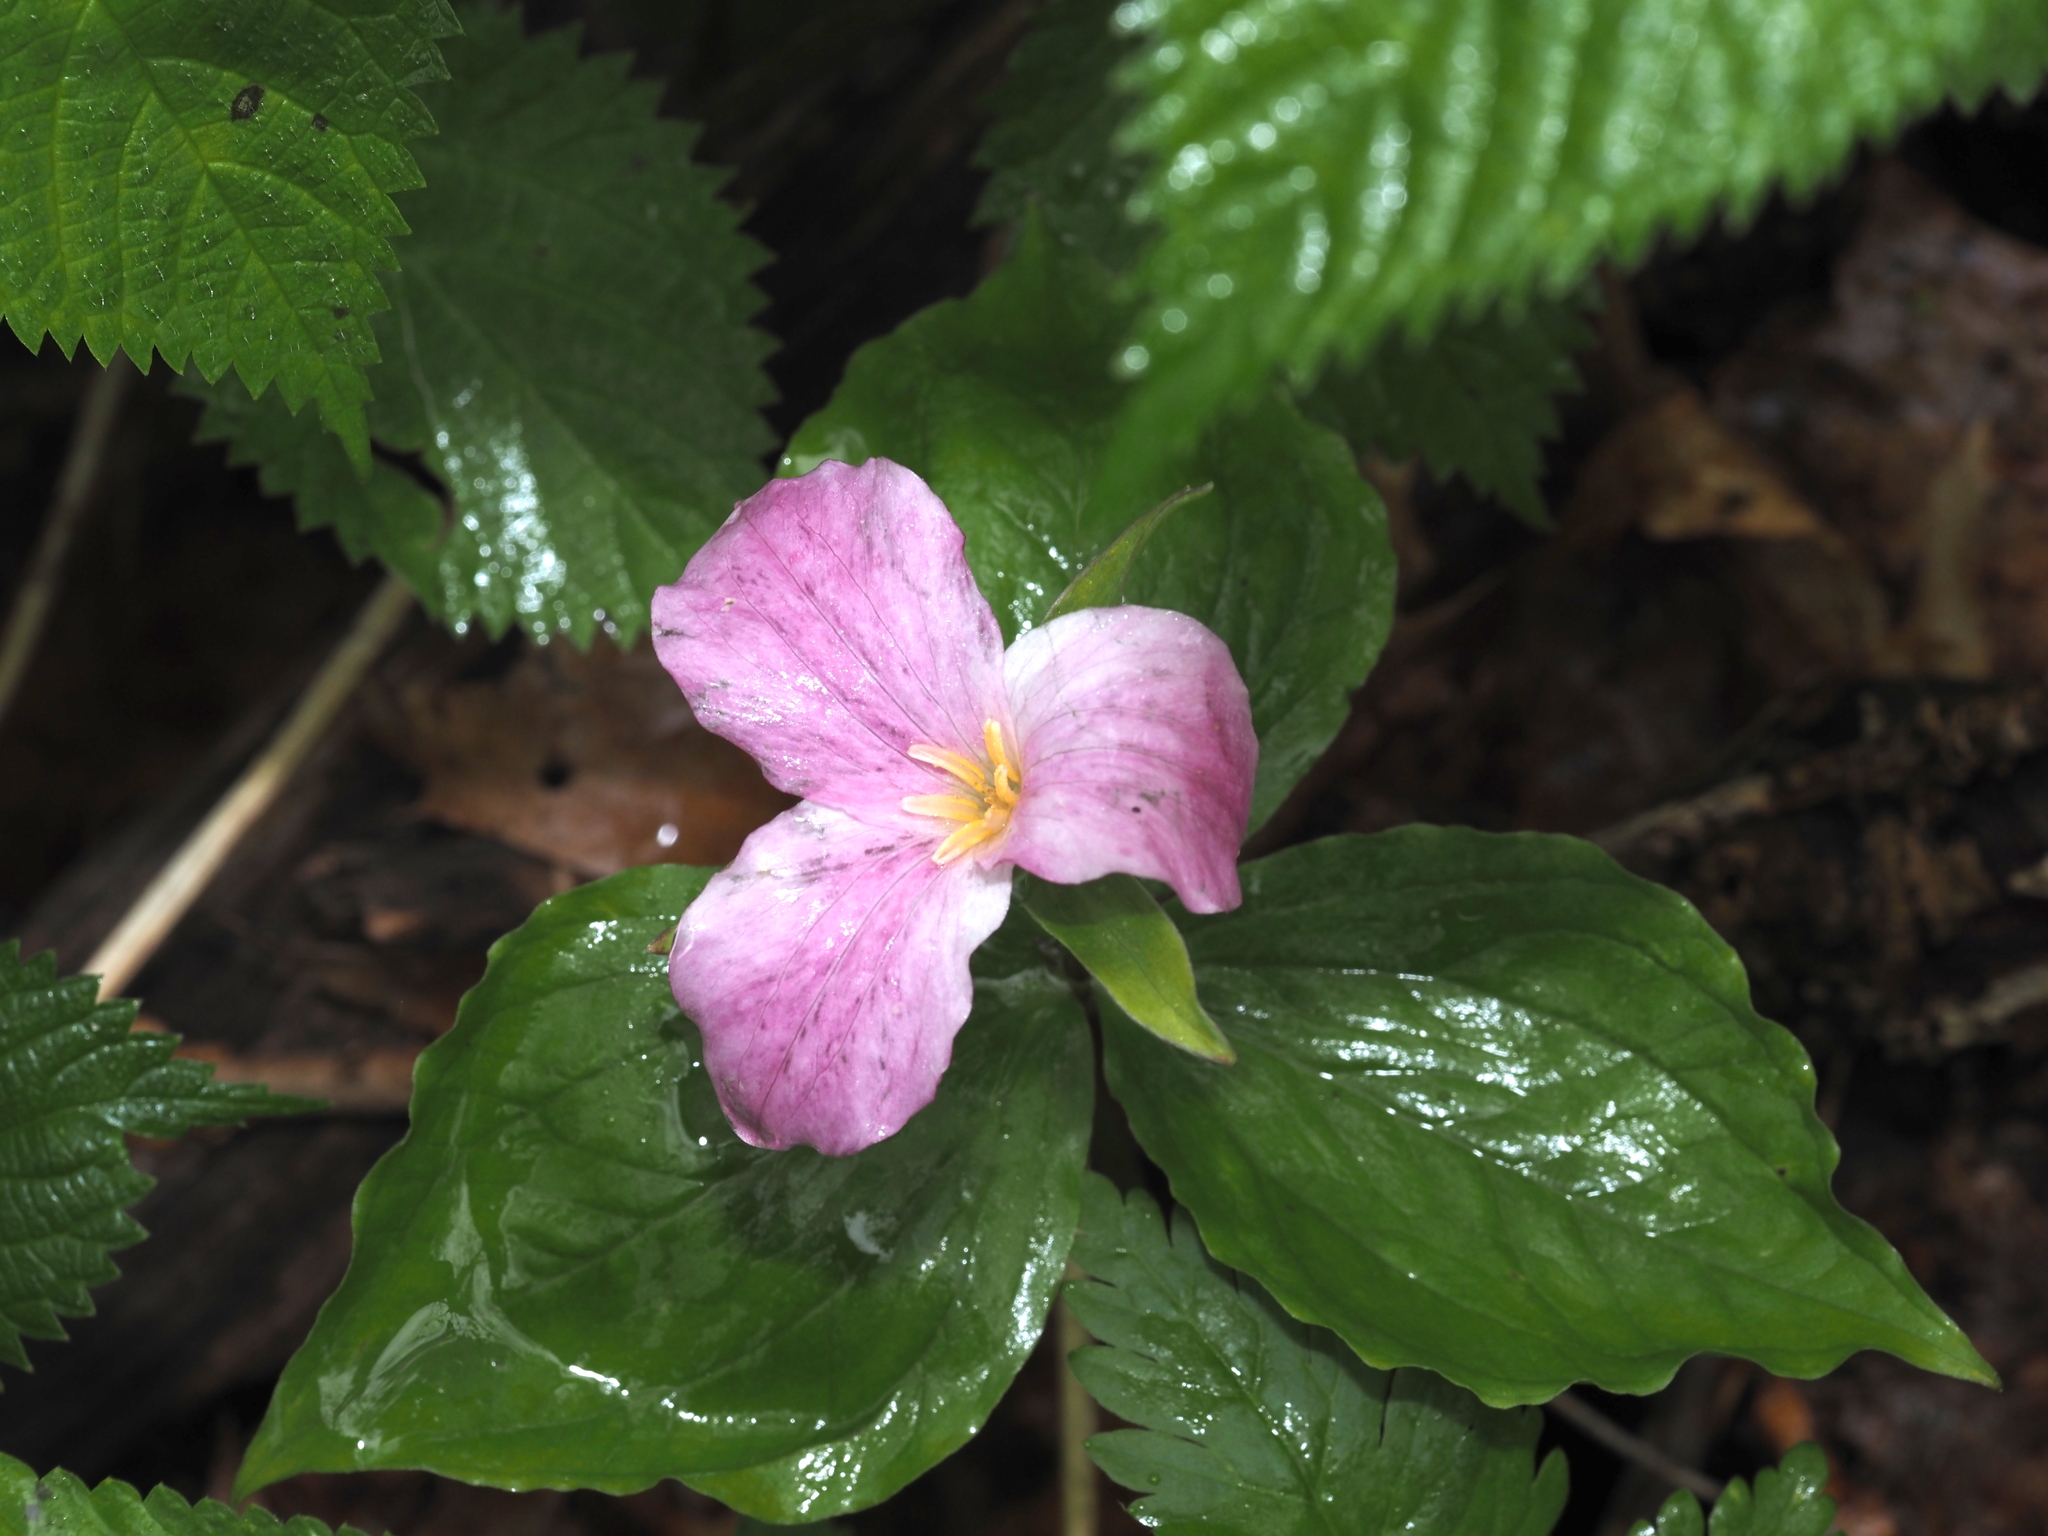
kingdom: Plantae
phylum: Tracheophyta
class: Liliopsida
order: Liliales
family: Melanthiaceae
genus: Trillium
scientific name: Trillium grandiflorum
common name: Great white trillium
